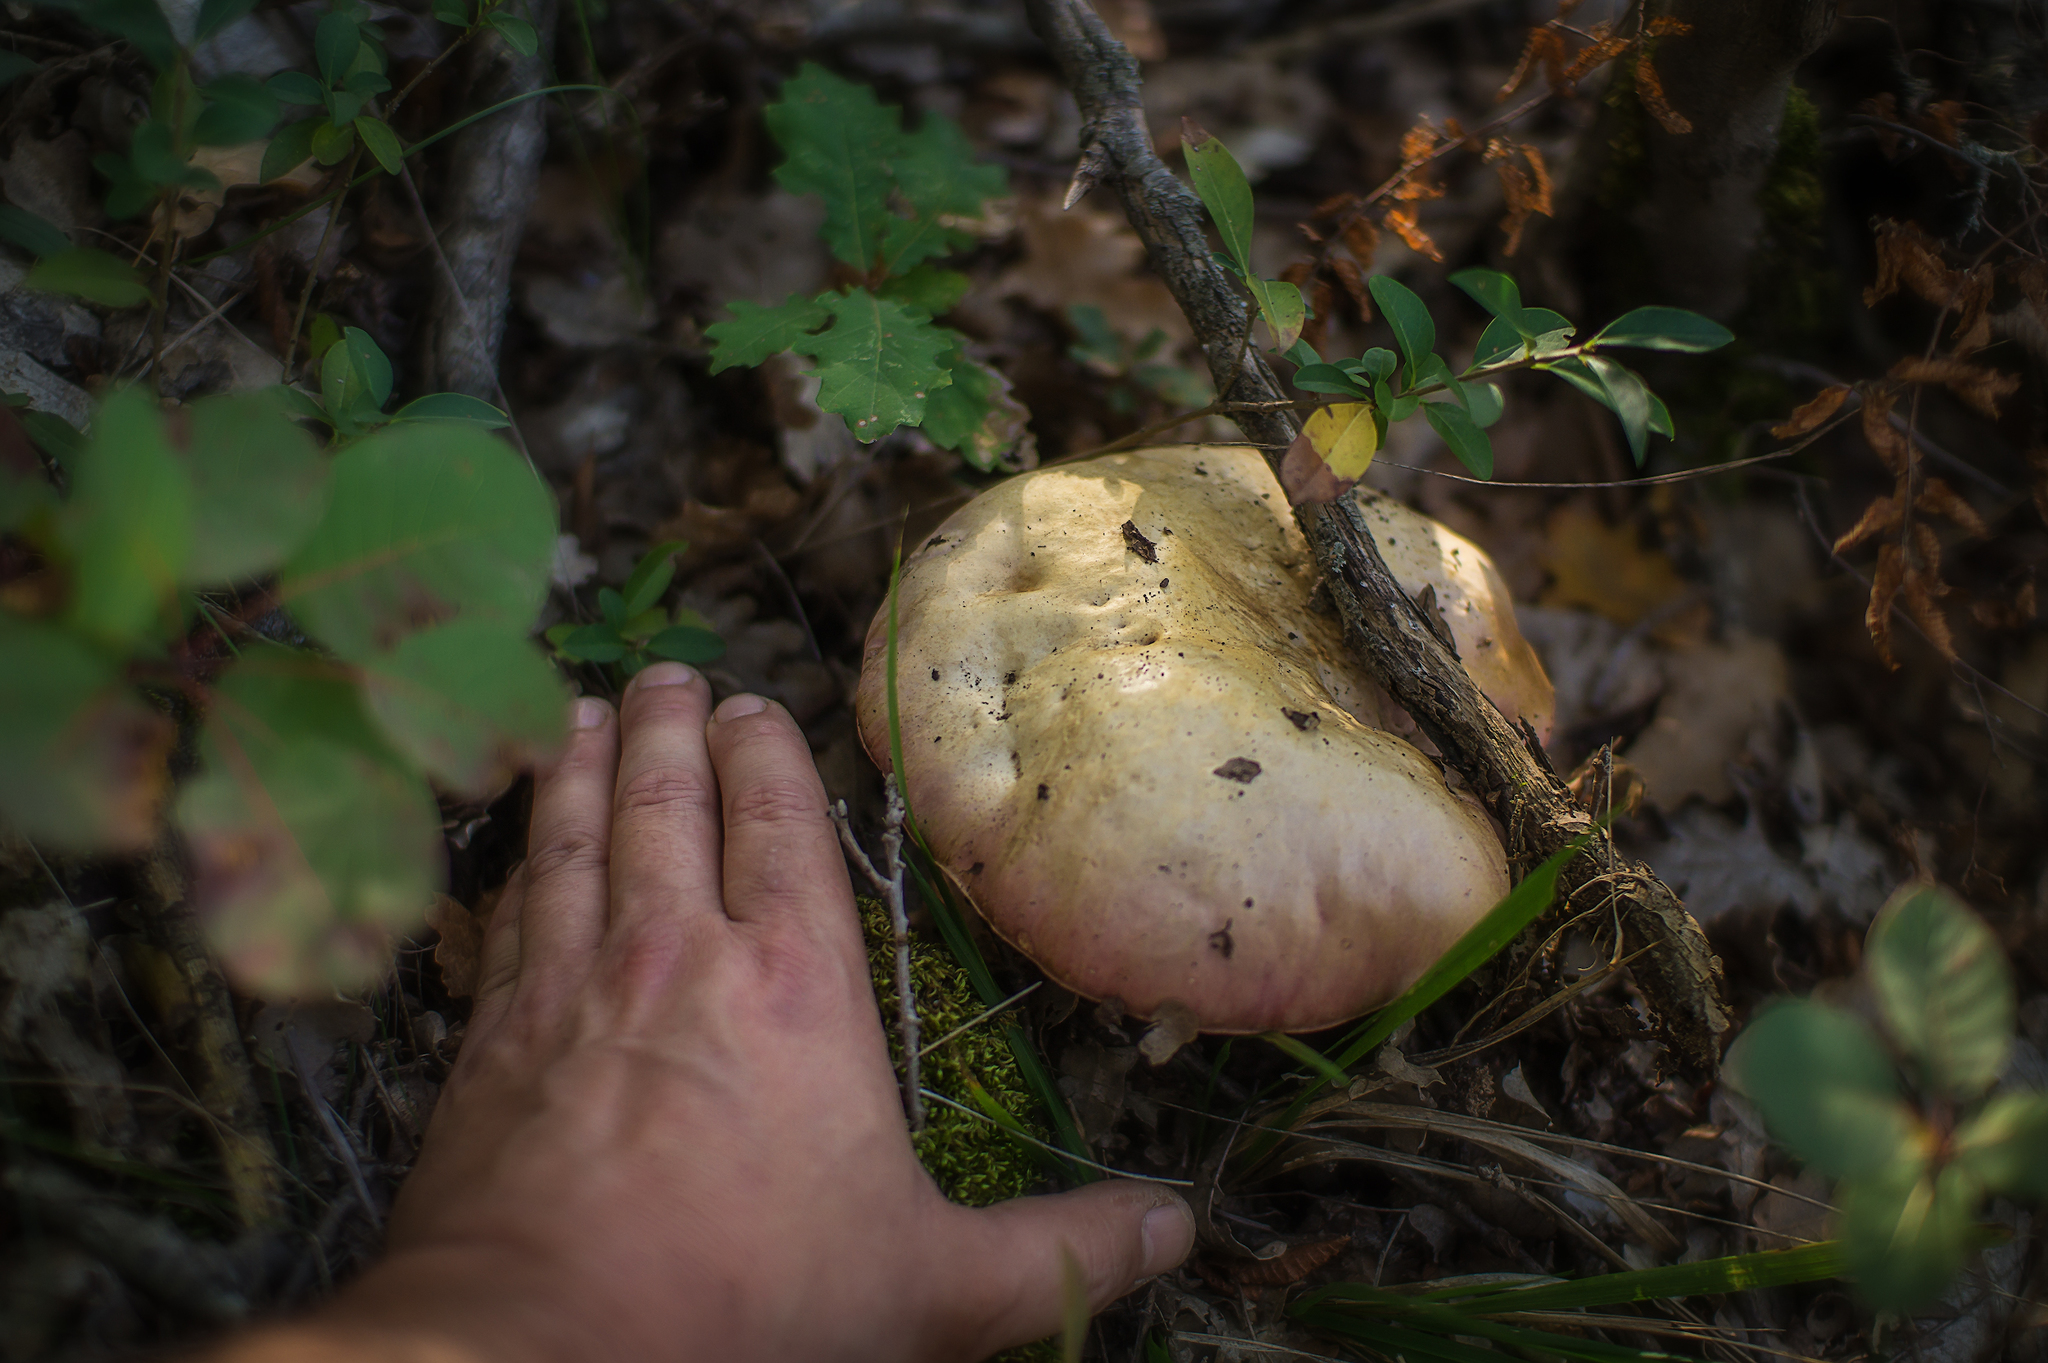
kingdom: Fungi
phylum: Basidiomycota
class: Agaricomycetes
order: Boletales
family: Boletaceae
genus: Rubroboletus
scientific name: Rubroboletus pulchrotinctus
